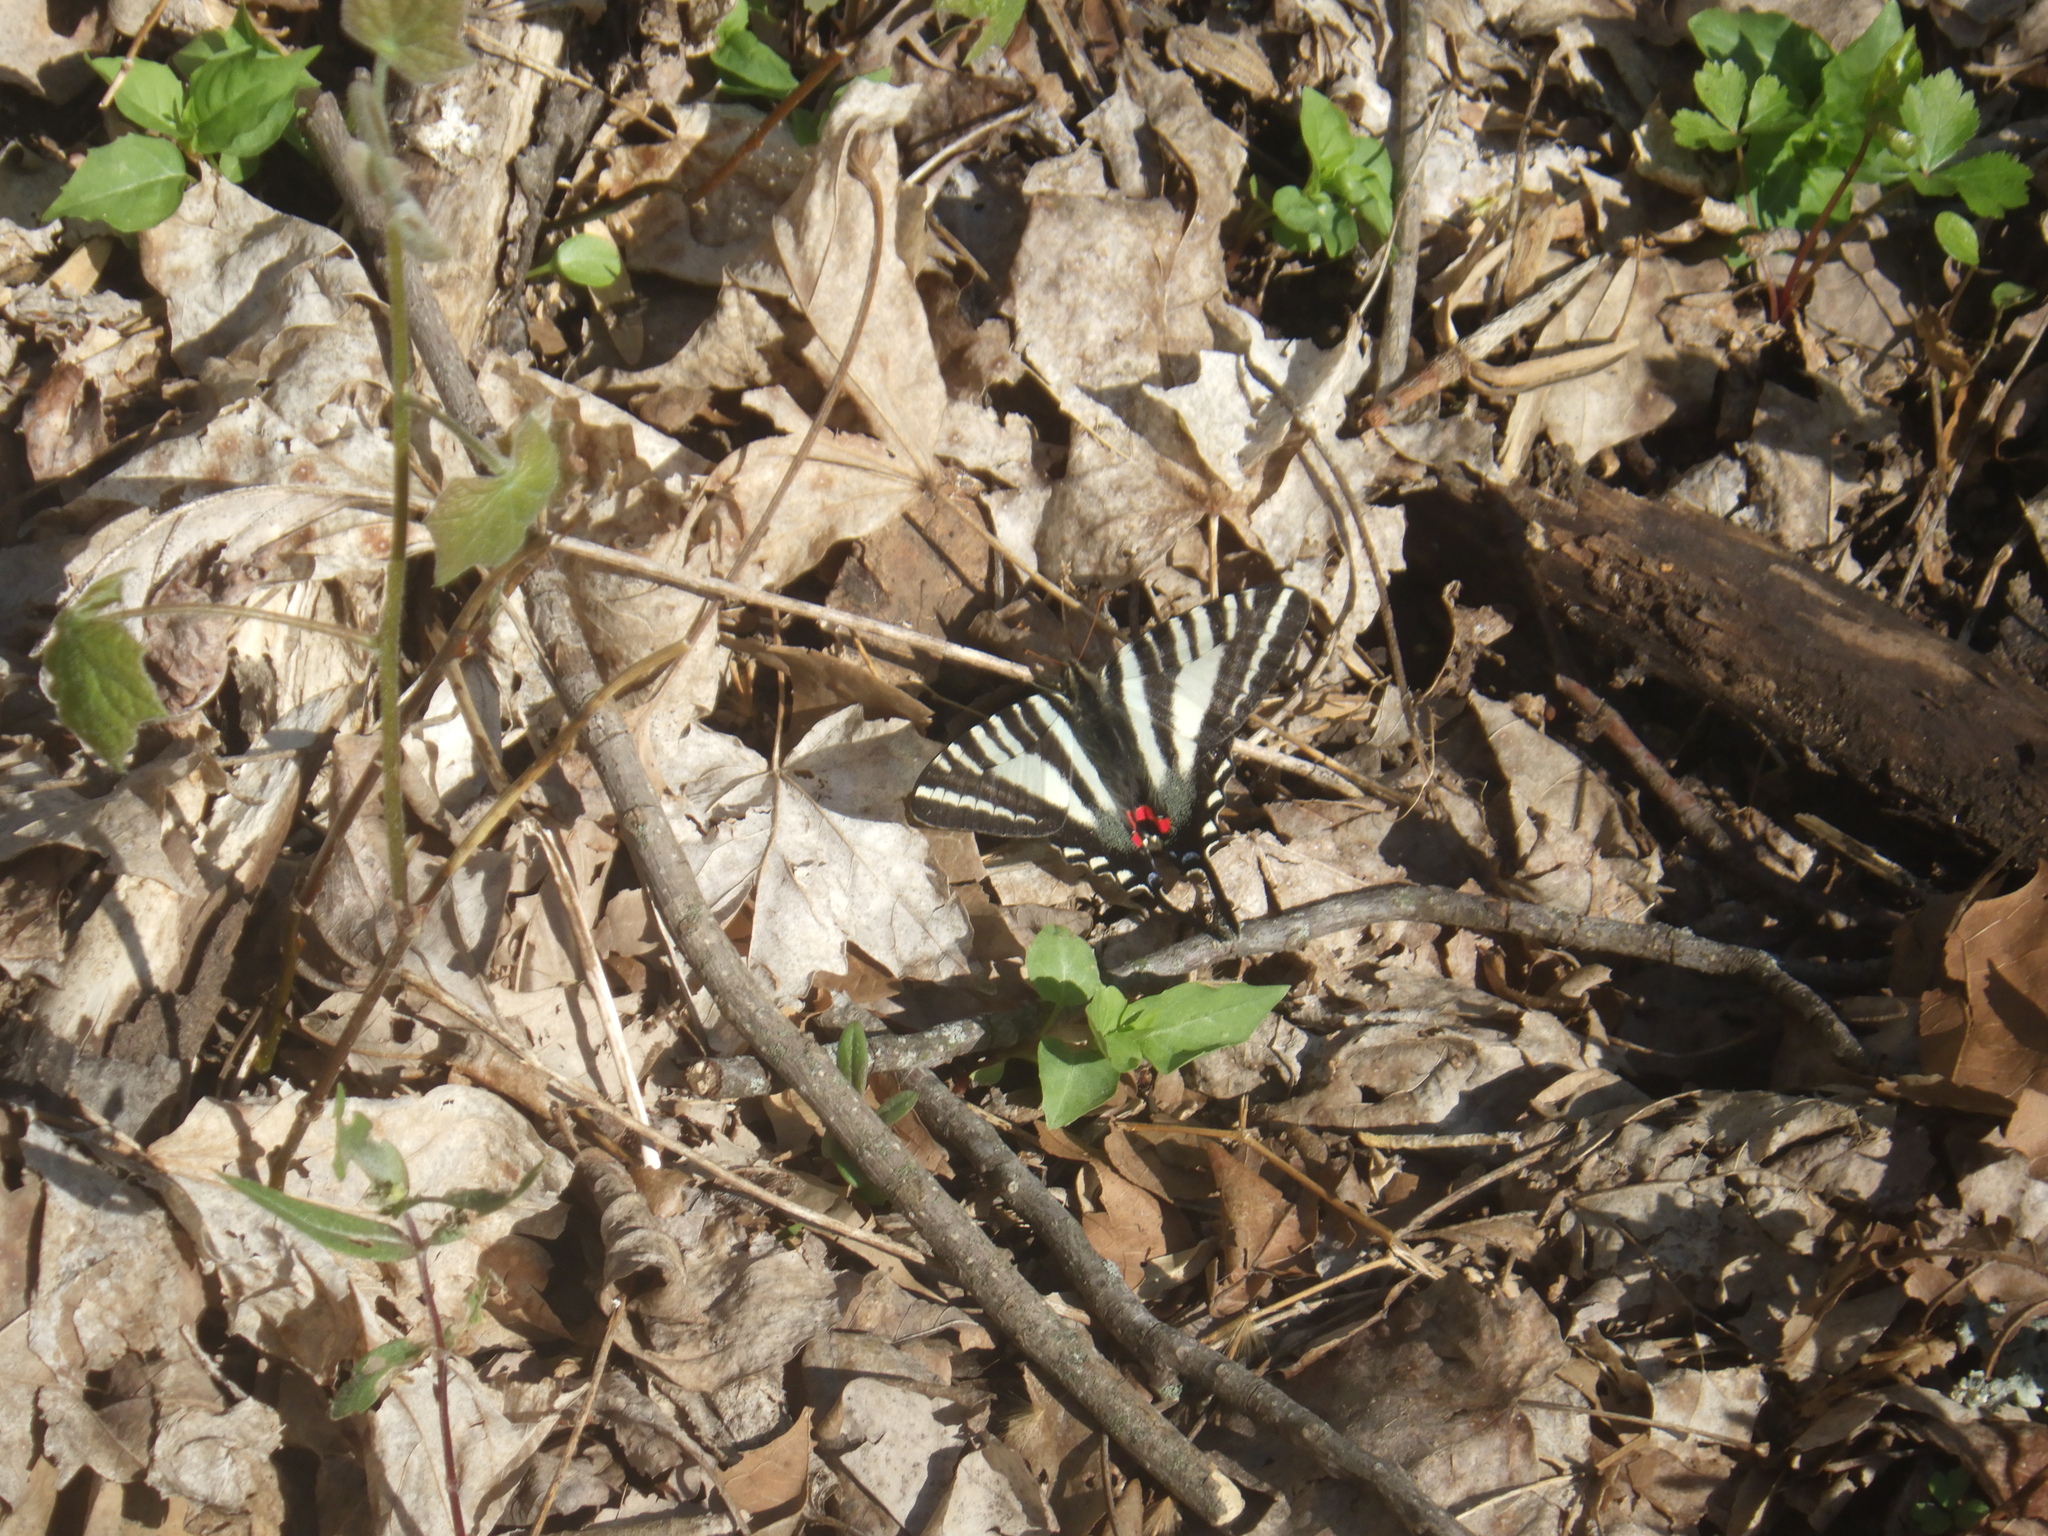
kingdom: Animalia
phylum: Arthropoda
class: Insecta
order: Lepidoptera
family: Papilionidae
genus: Protographium
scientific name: Protographium marcellus
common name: Zebra swallowtail
